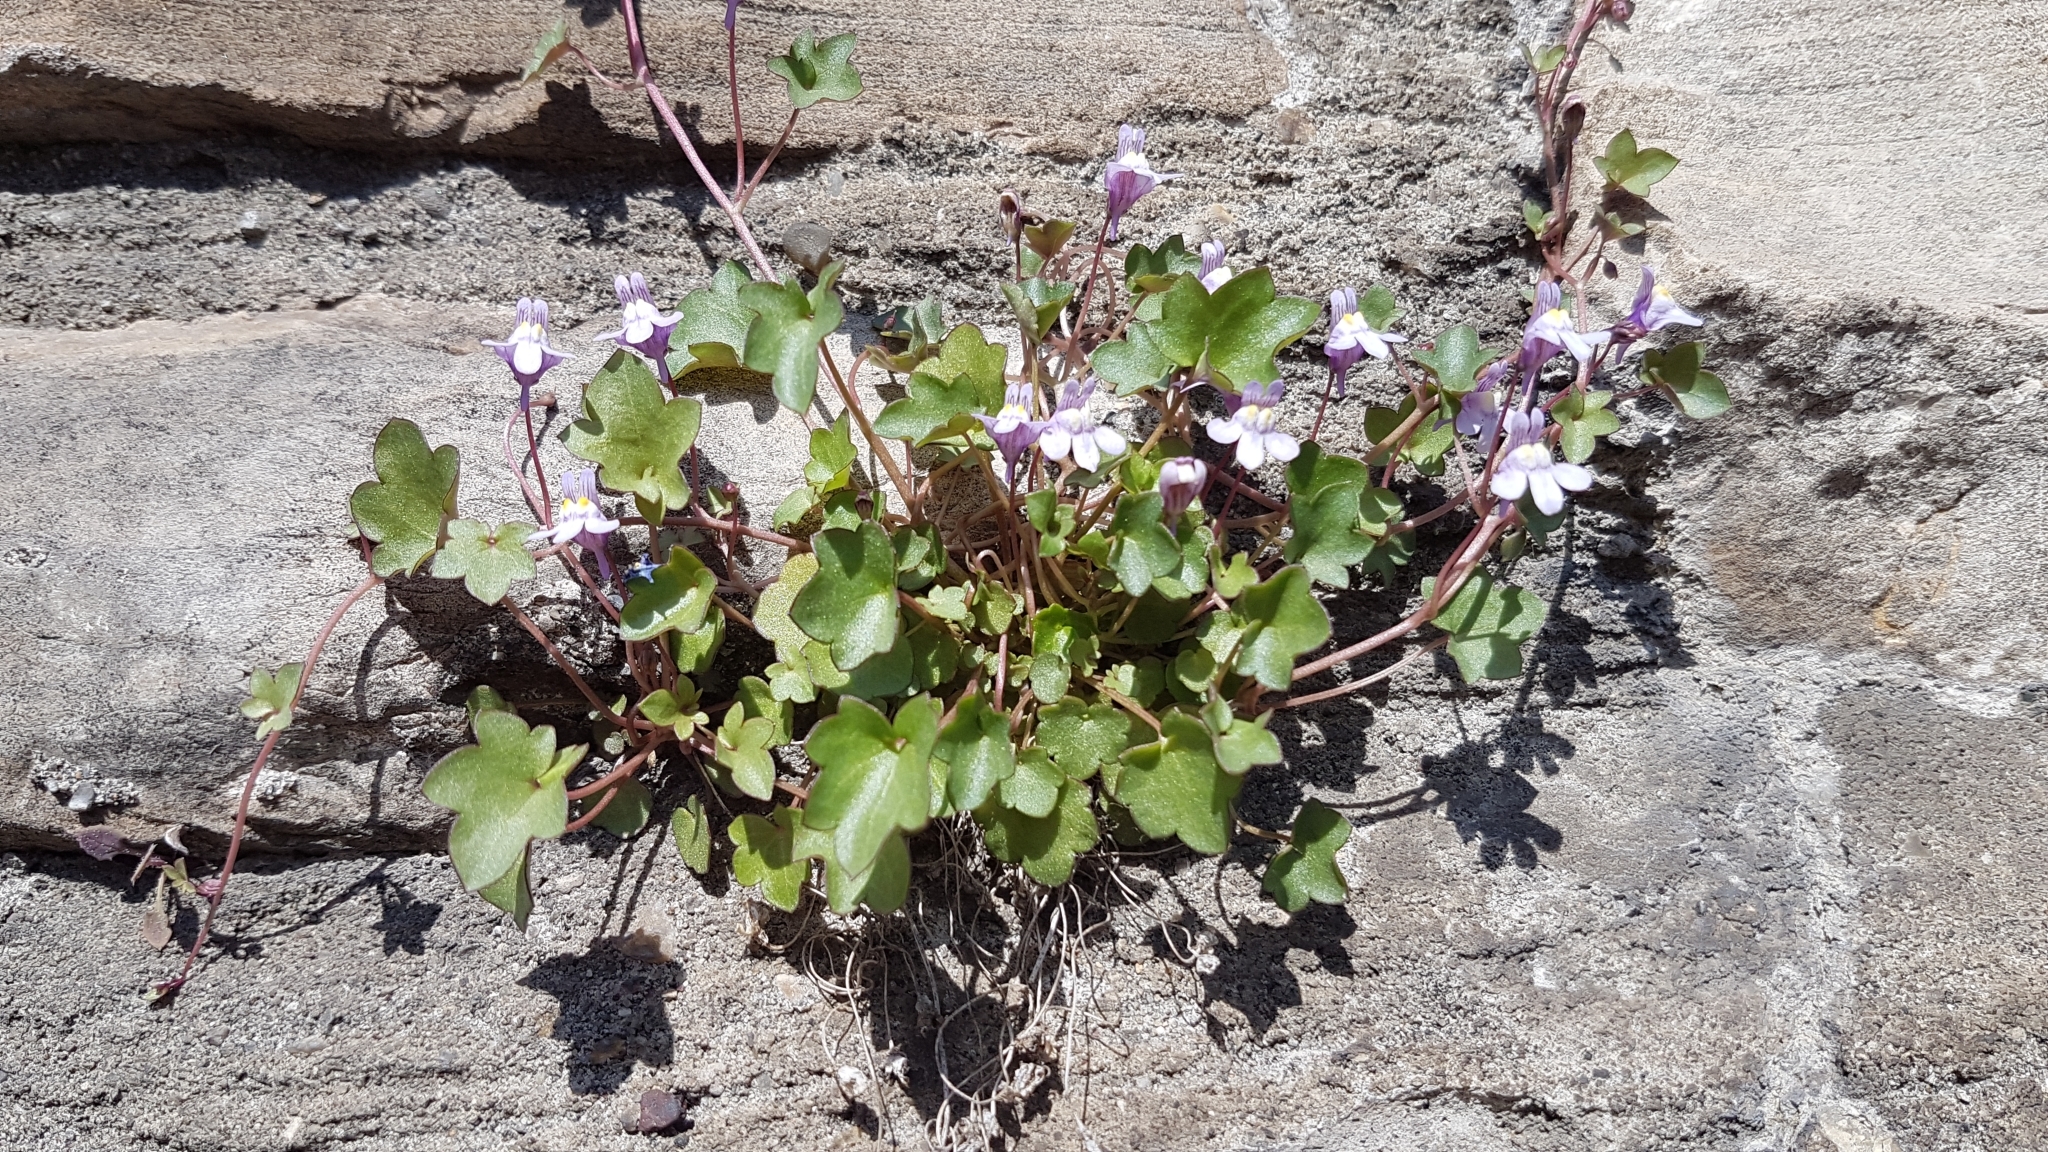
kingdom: Plantae
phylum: Tracheophyta
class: Magnoliopsida
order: Lamiales
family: Plantaginaceae
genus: Cymbalaria
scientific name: Cymbalaria muralis
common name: Ivy-leaved toadflax
